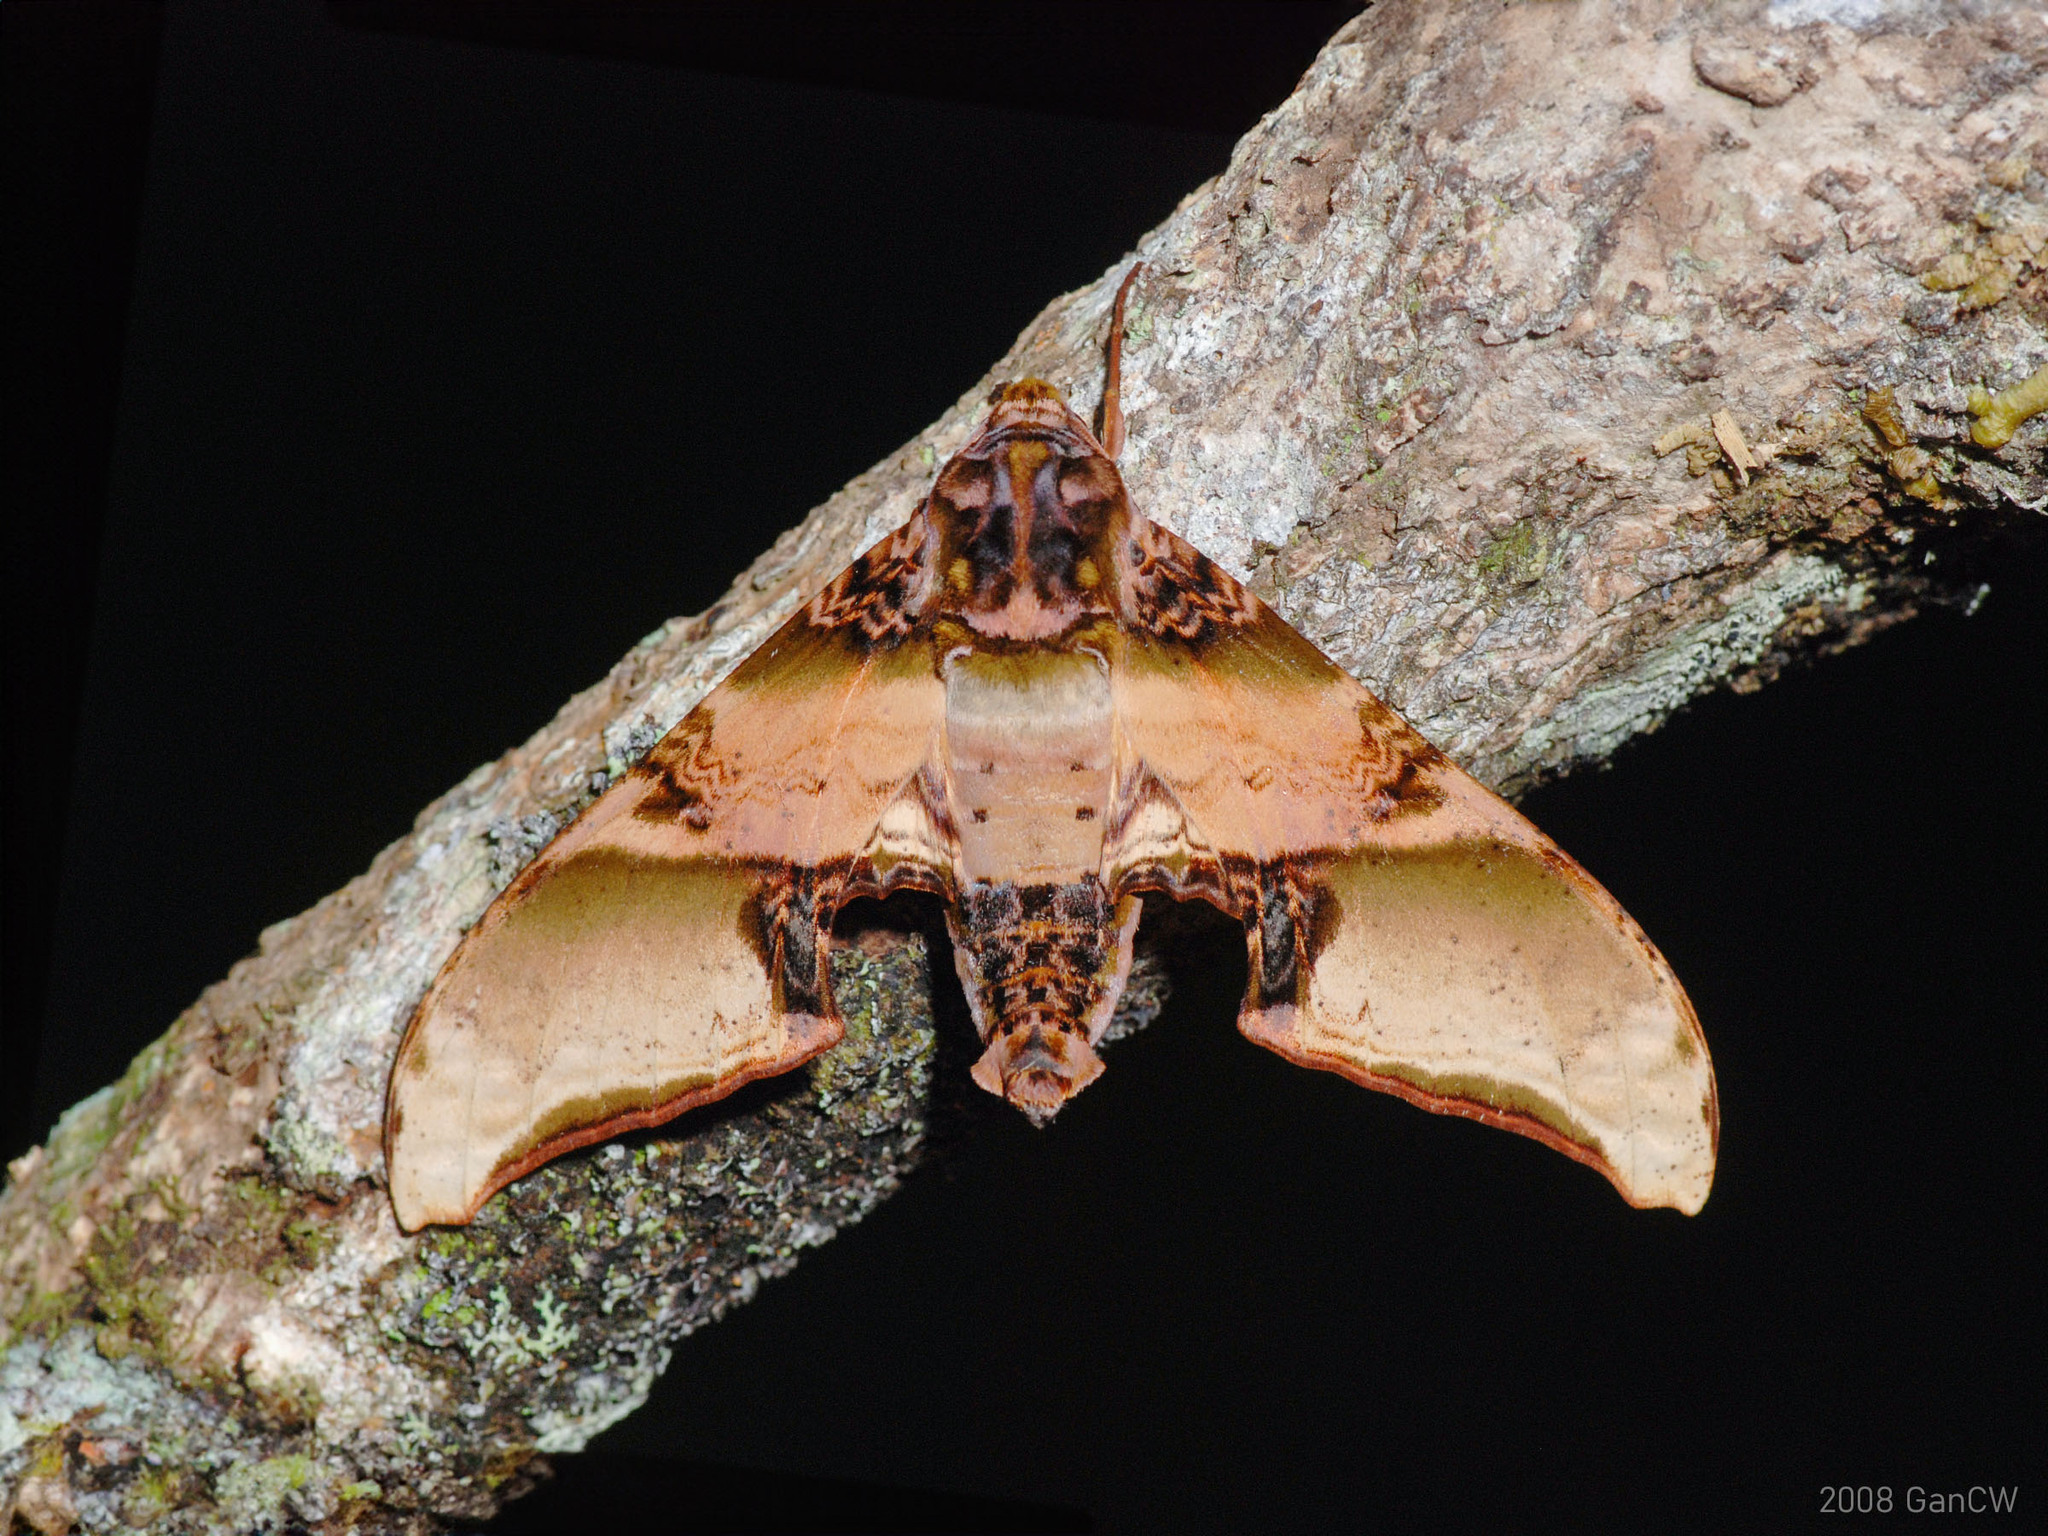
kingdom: Animalia
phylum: Arthropoda
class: Insecta
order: Lepidoptera
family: Sphingidae
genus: Amplypterus
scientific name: Amplypterus mansoni
